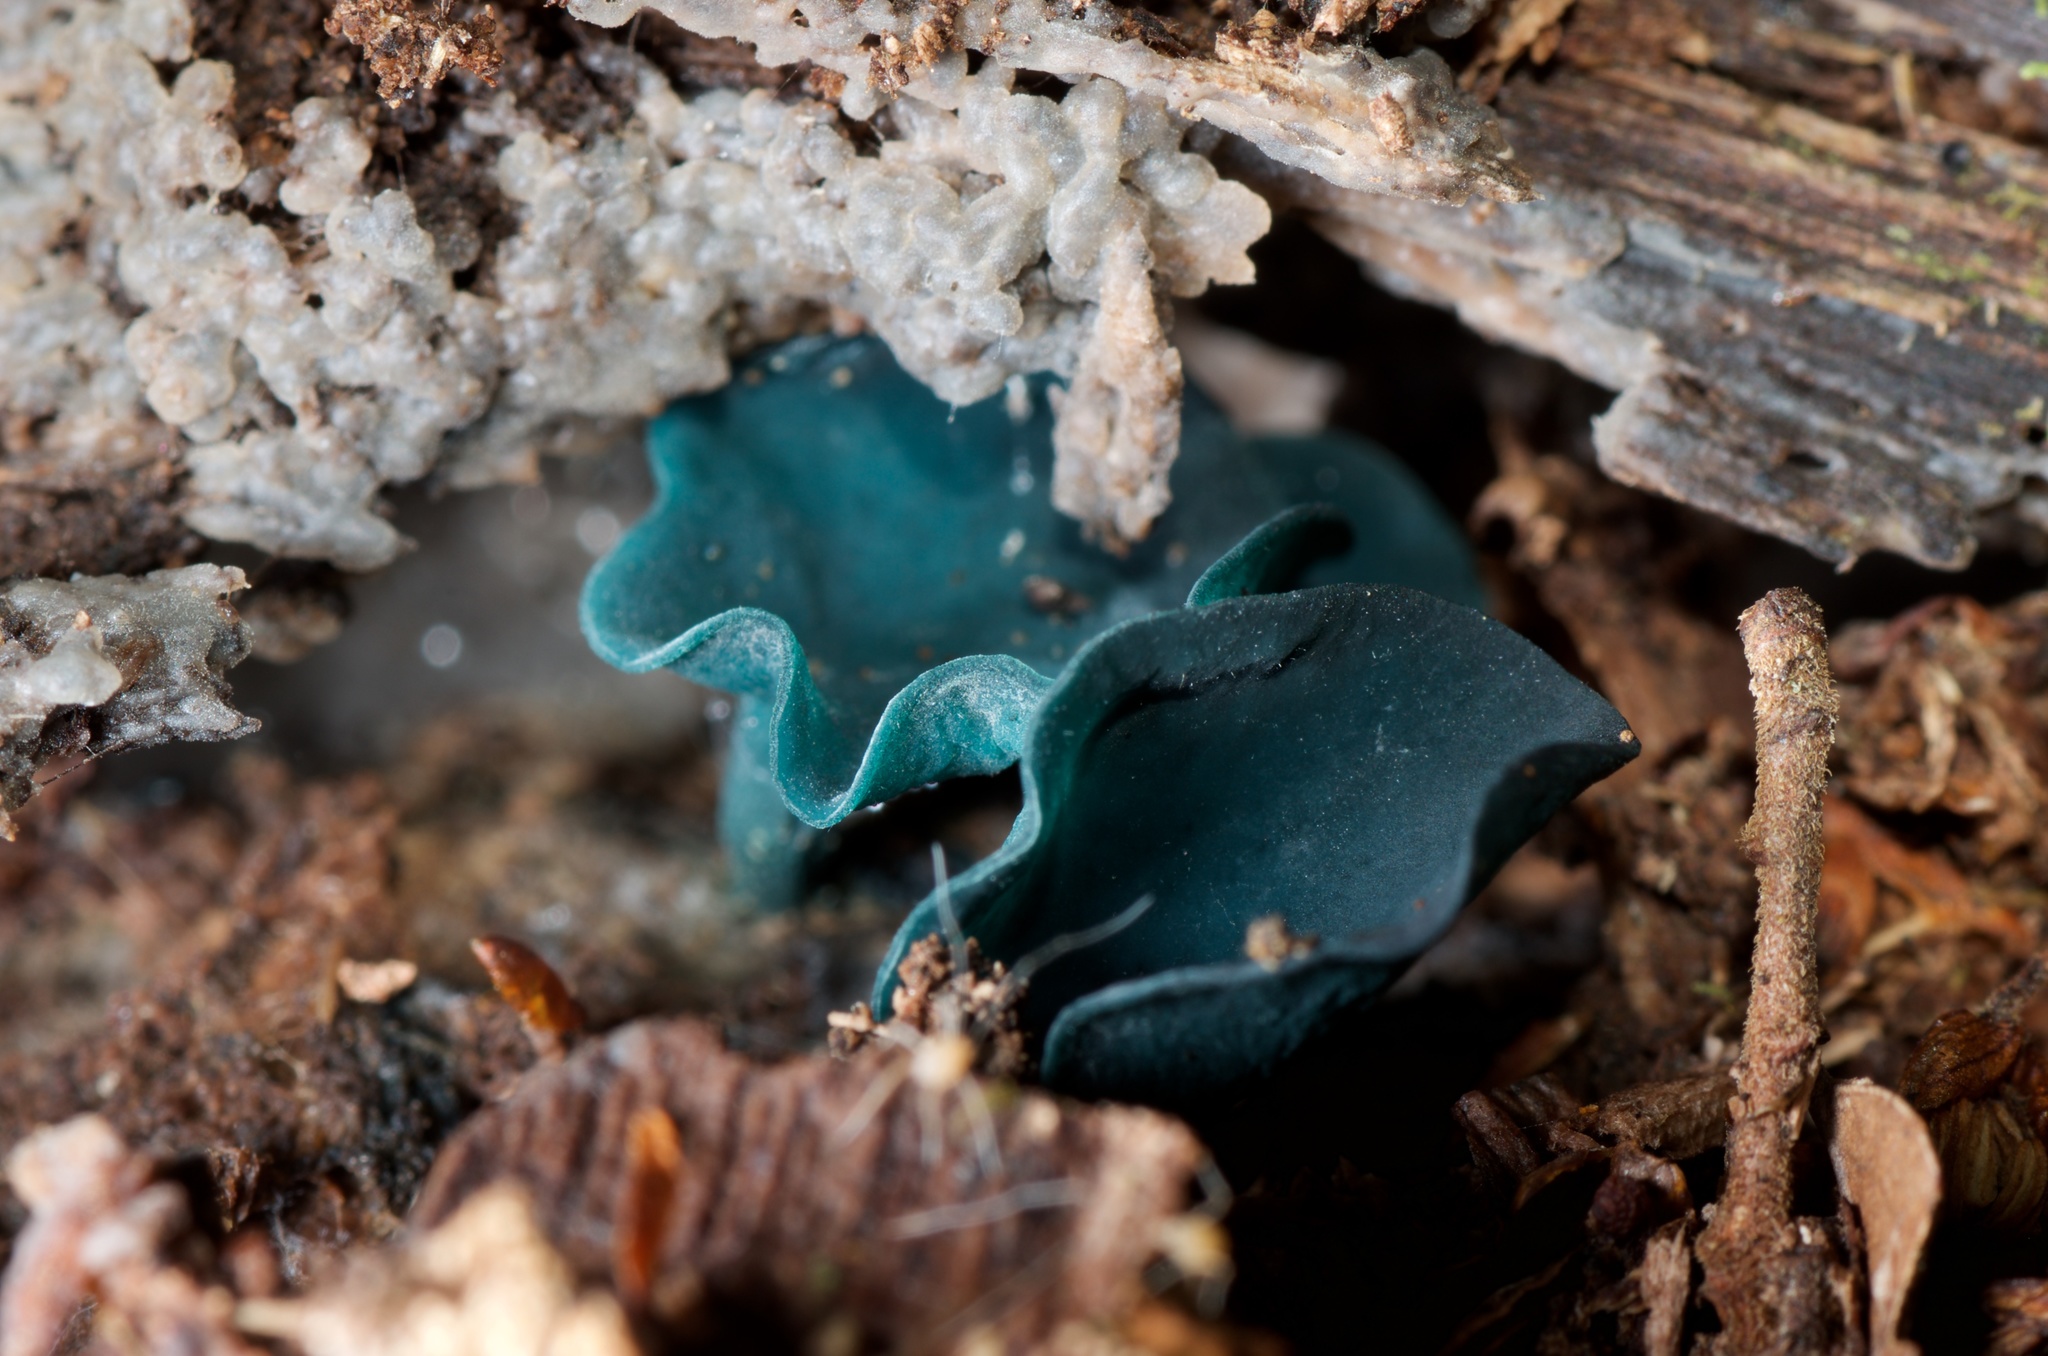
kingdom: Fungi
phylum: Ascomycota
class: Leotiomycetes
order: Helotiales
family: Chlorociboriaceae
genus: Chlorociboria
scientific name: Chlorociboria
